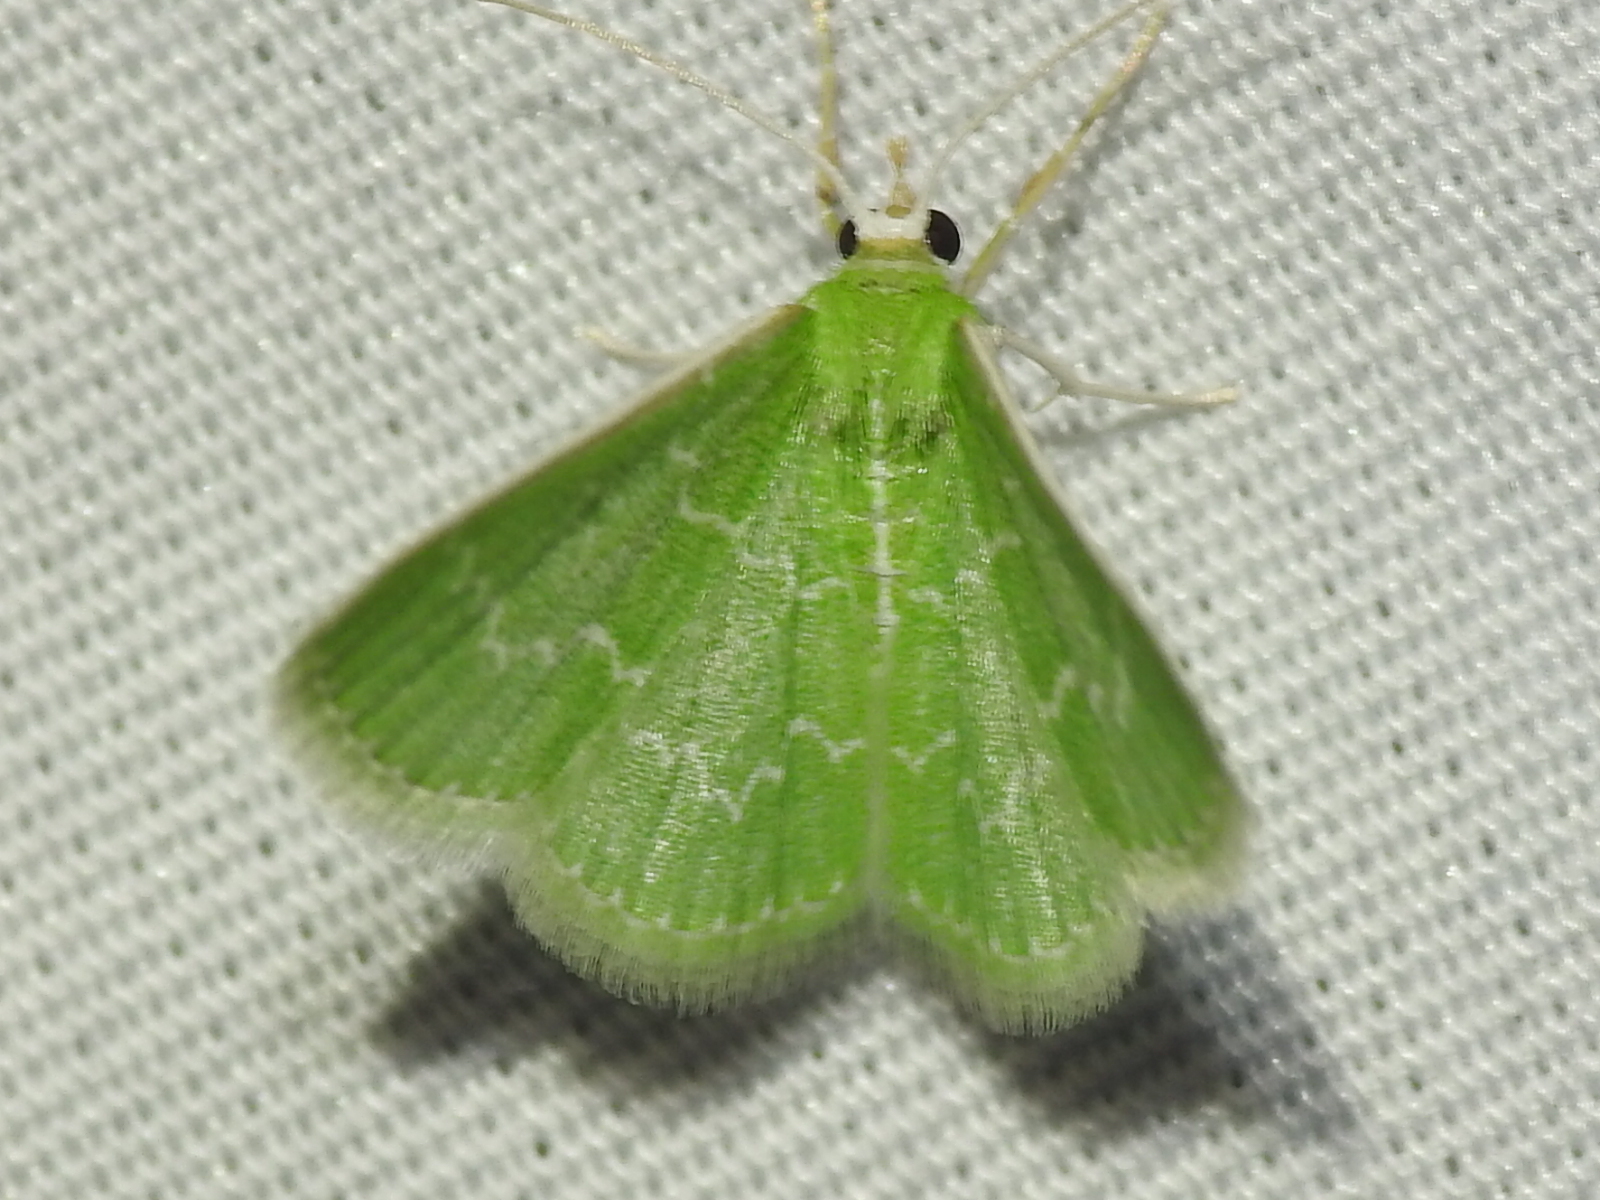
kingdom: Animalia
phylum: Arthropoda
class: Insecta
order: Lepidoptera
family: Geometridae
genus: Synchlora
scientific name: Synchlora frondaria
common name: Southern emerald
